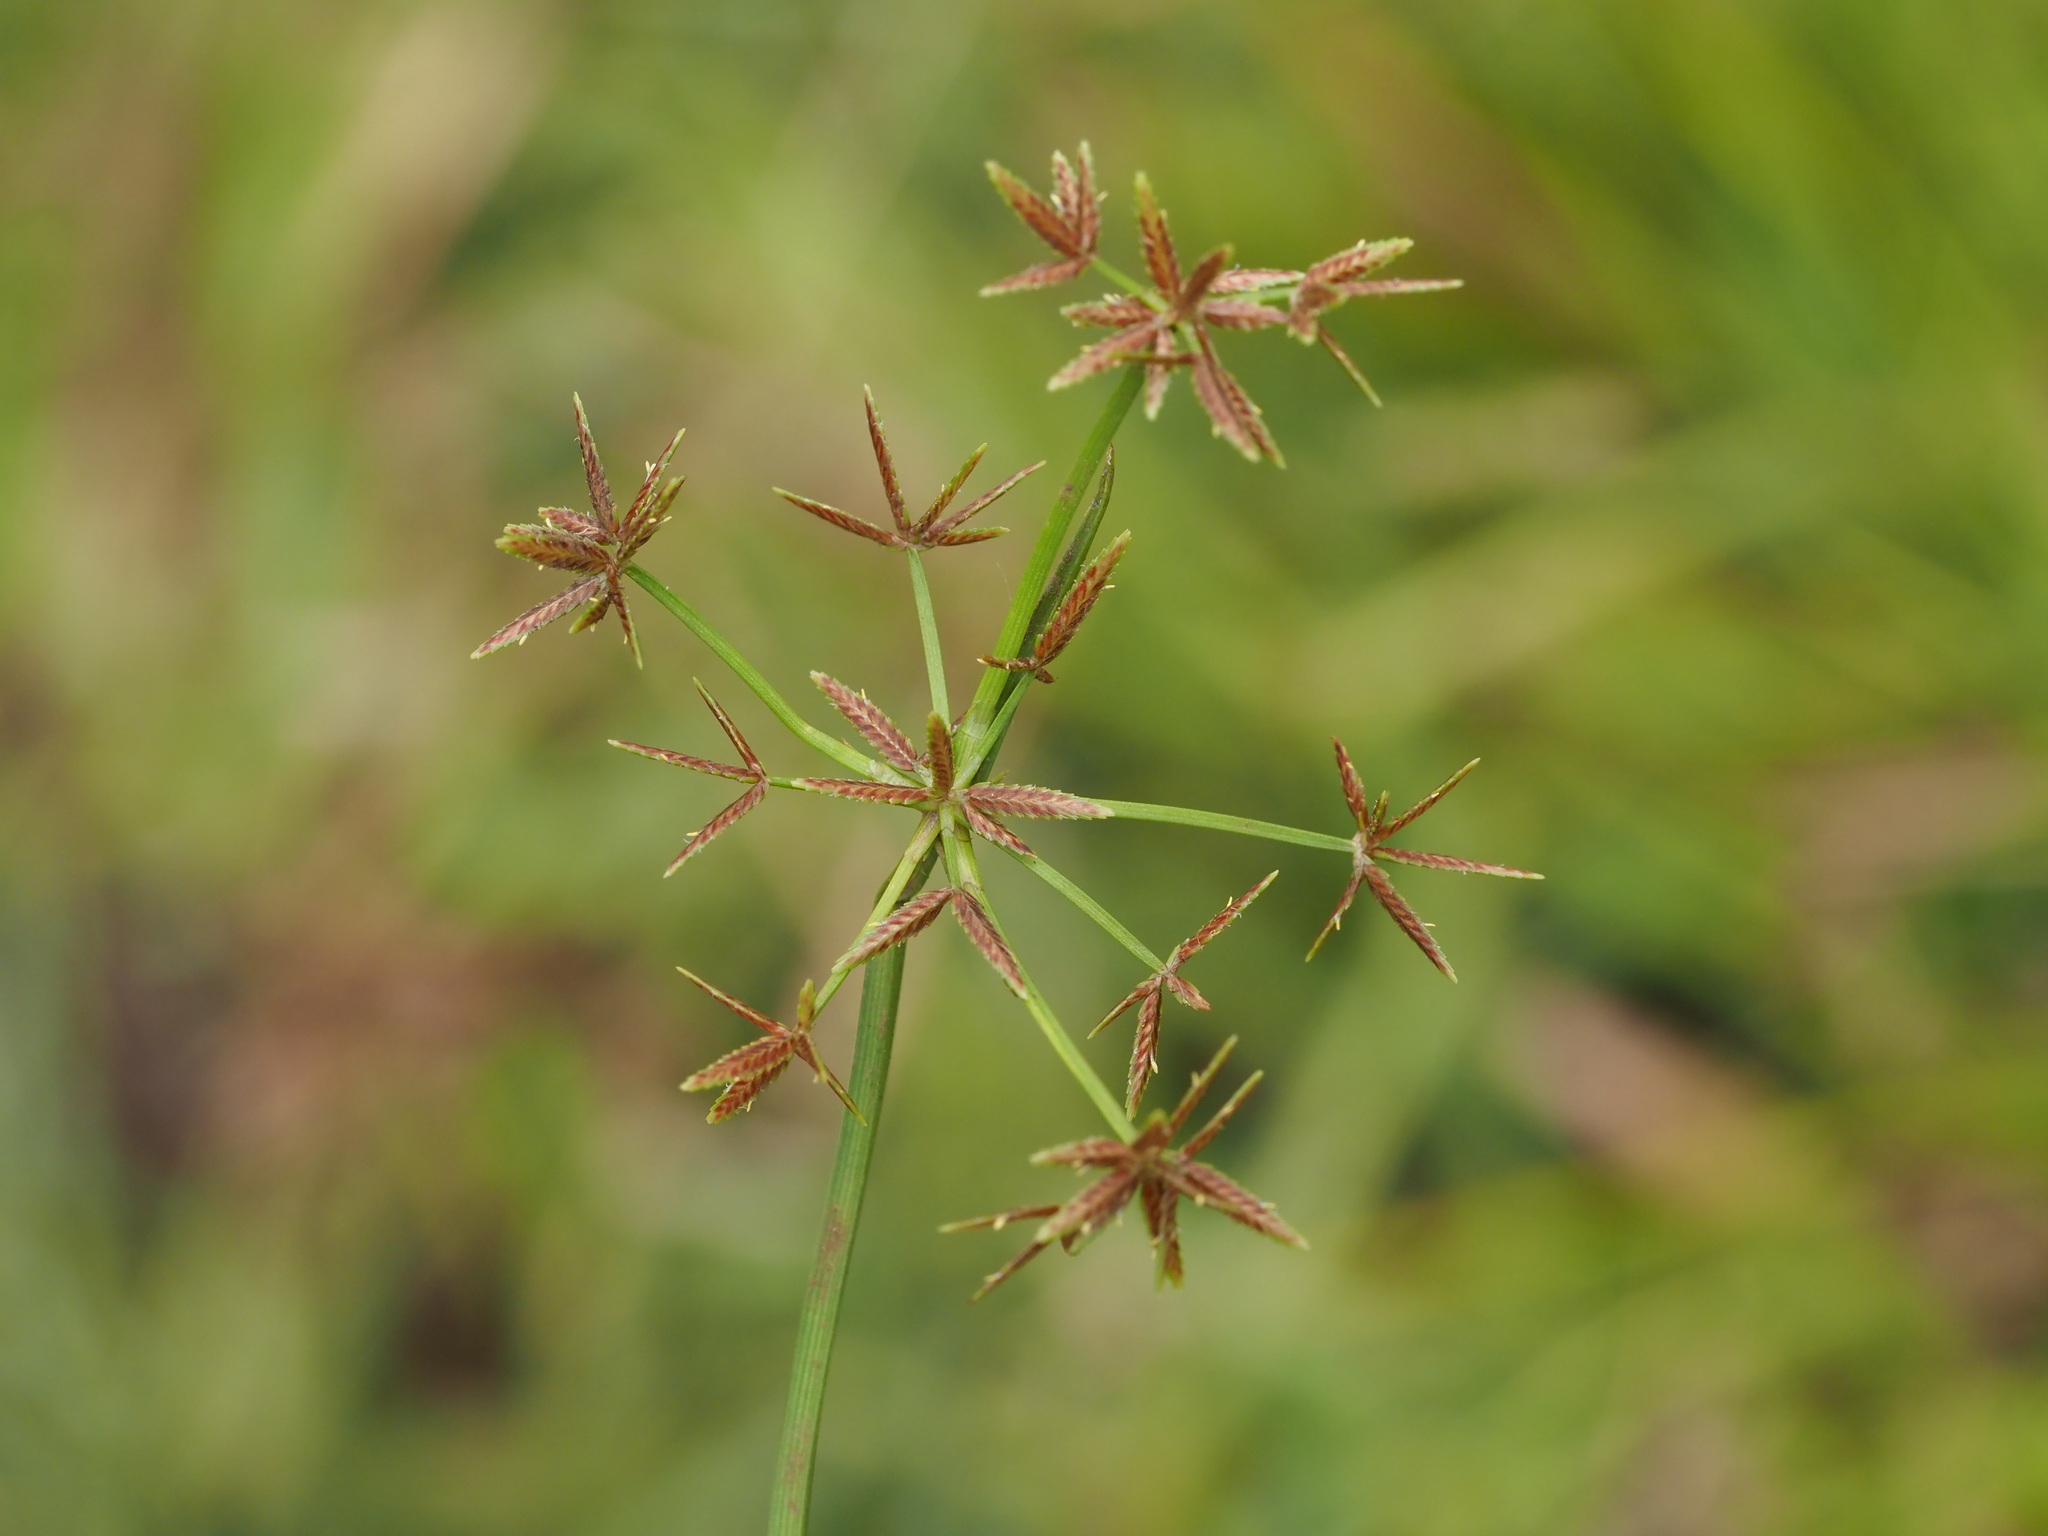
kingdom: Plantae
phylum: Tracheophyta
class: Liliopsida
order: Poales
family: Cyperaceae
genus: Cyperus
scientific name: Cyperus haspan
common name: Haspan flatsedge
